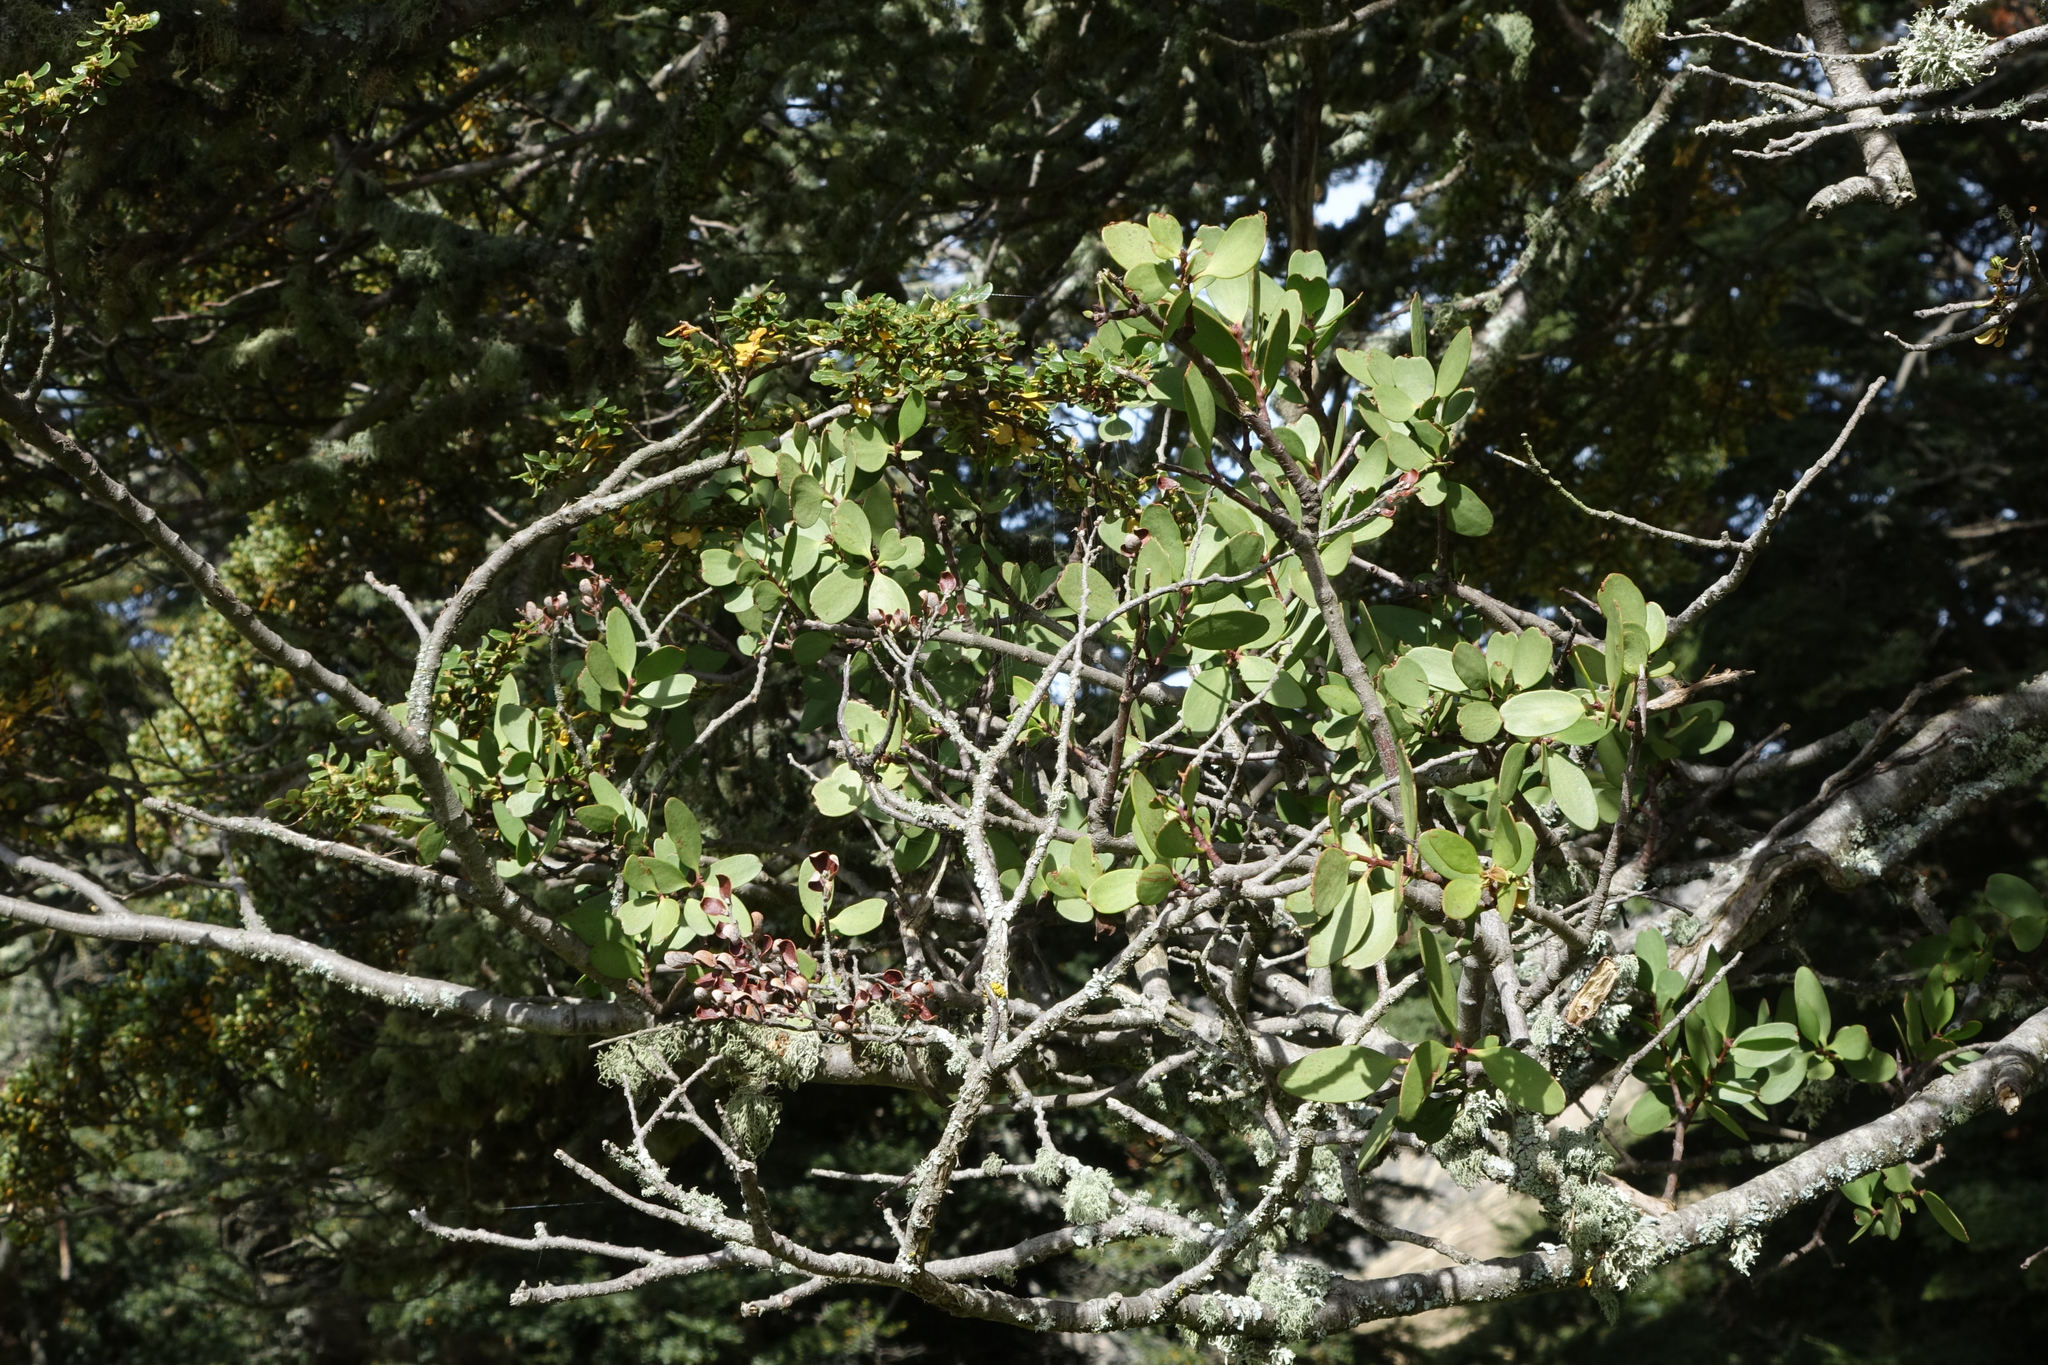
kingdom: Plantae
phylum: Tracheophyta
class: Magnoliopsida
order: Santalales
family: Loranthaceae
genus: Alepis
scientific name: Alepis flavida
